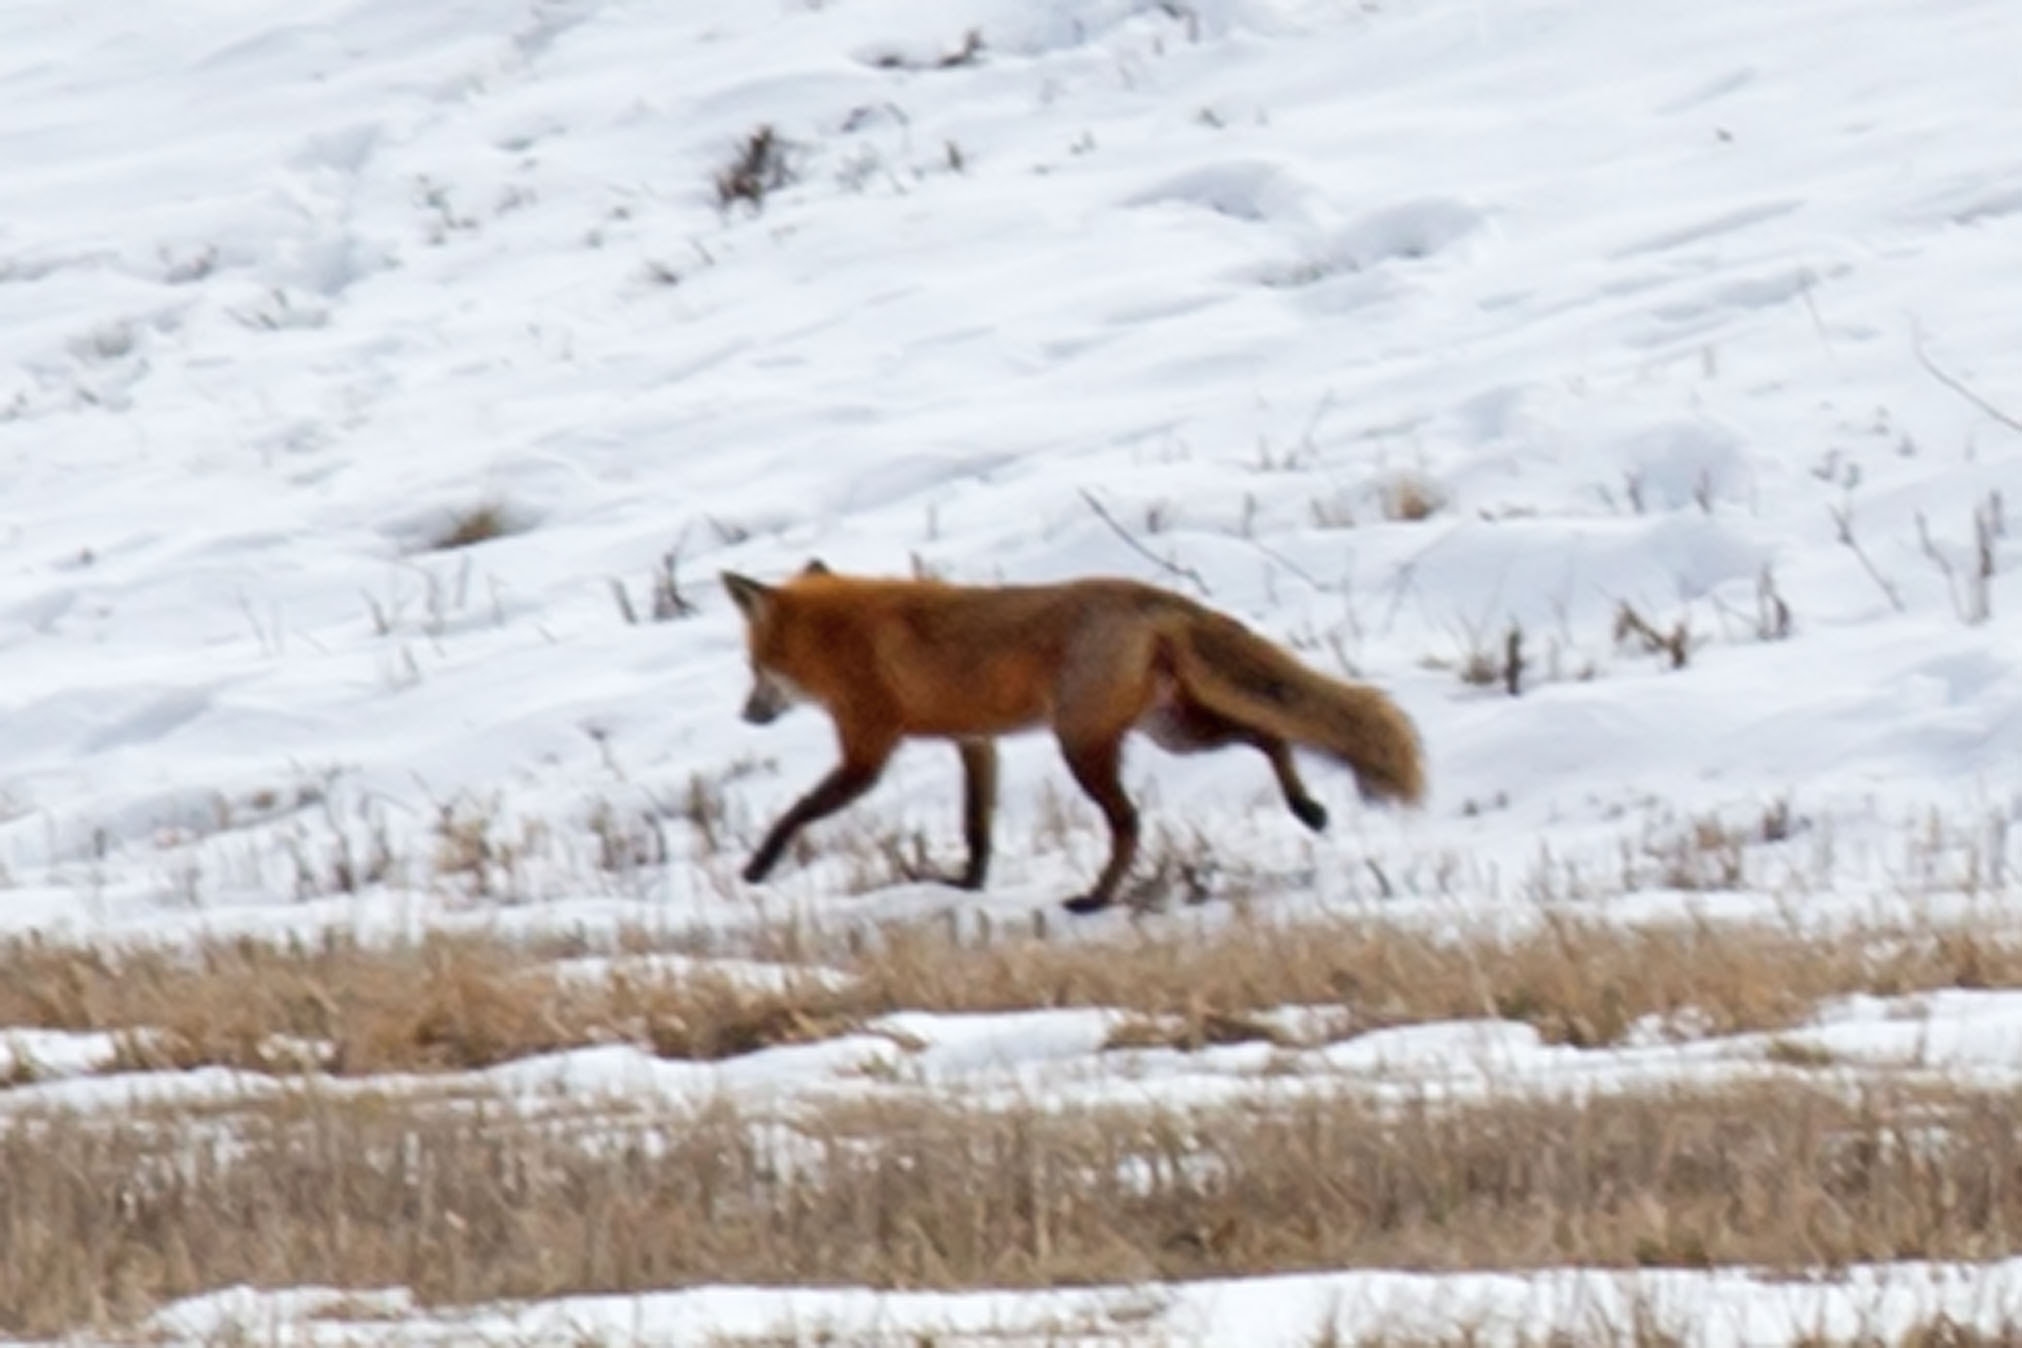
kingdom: Animalia
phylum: Chordata
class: Mammalia
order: Carnivora
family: Canidae
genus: Vulpes
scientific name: Vulpes vulpes
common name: Red fox
